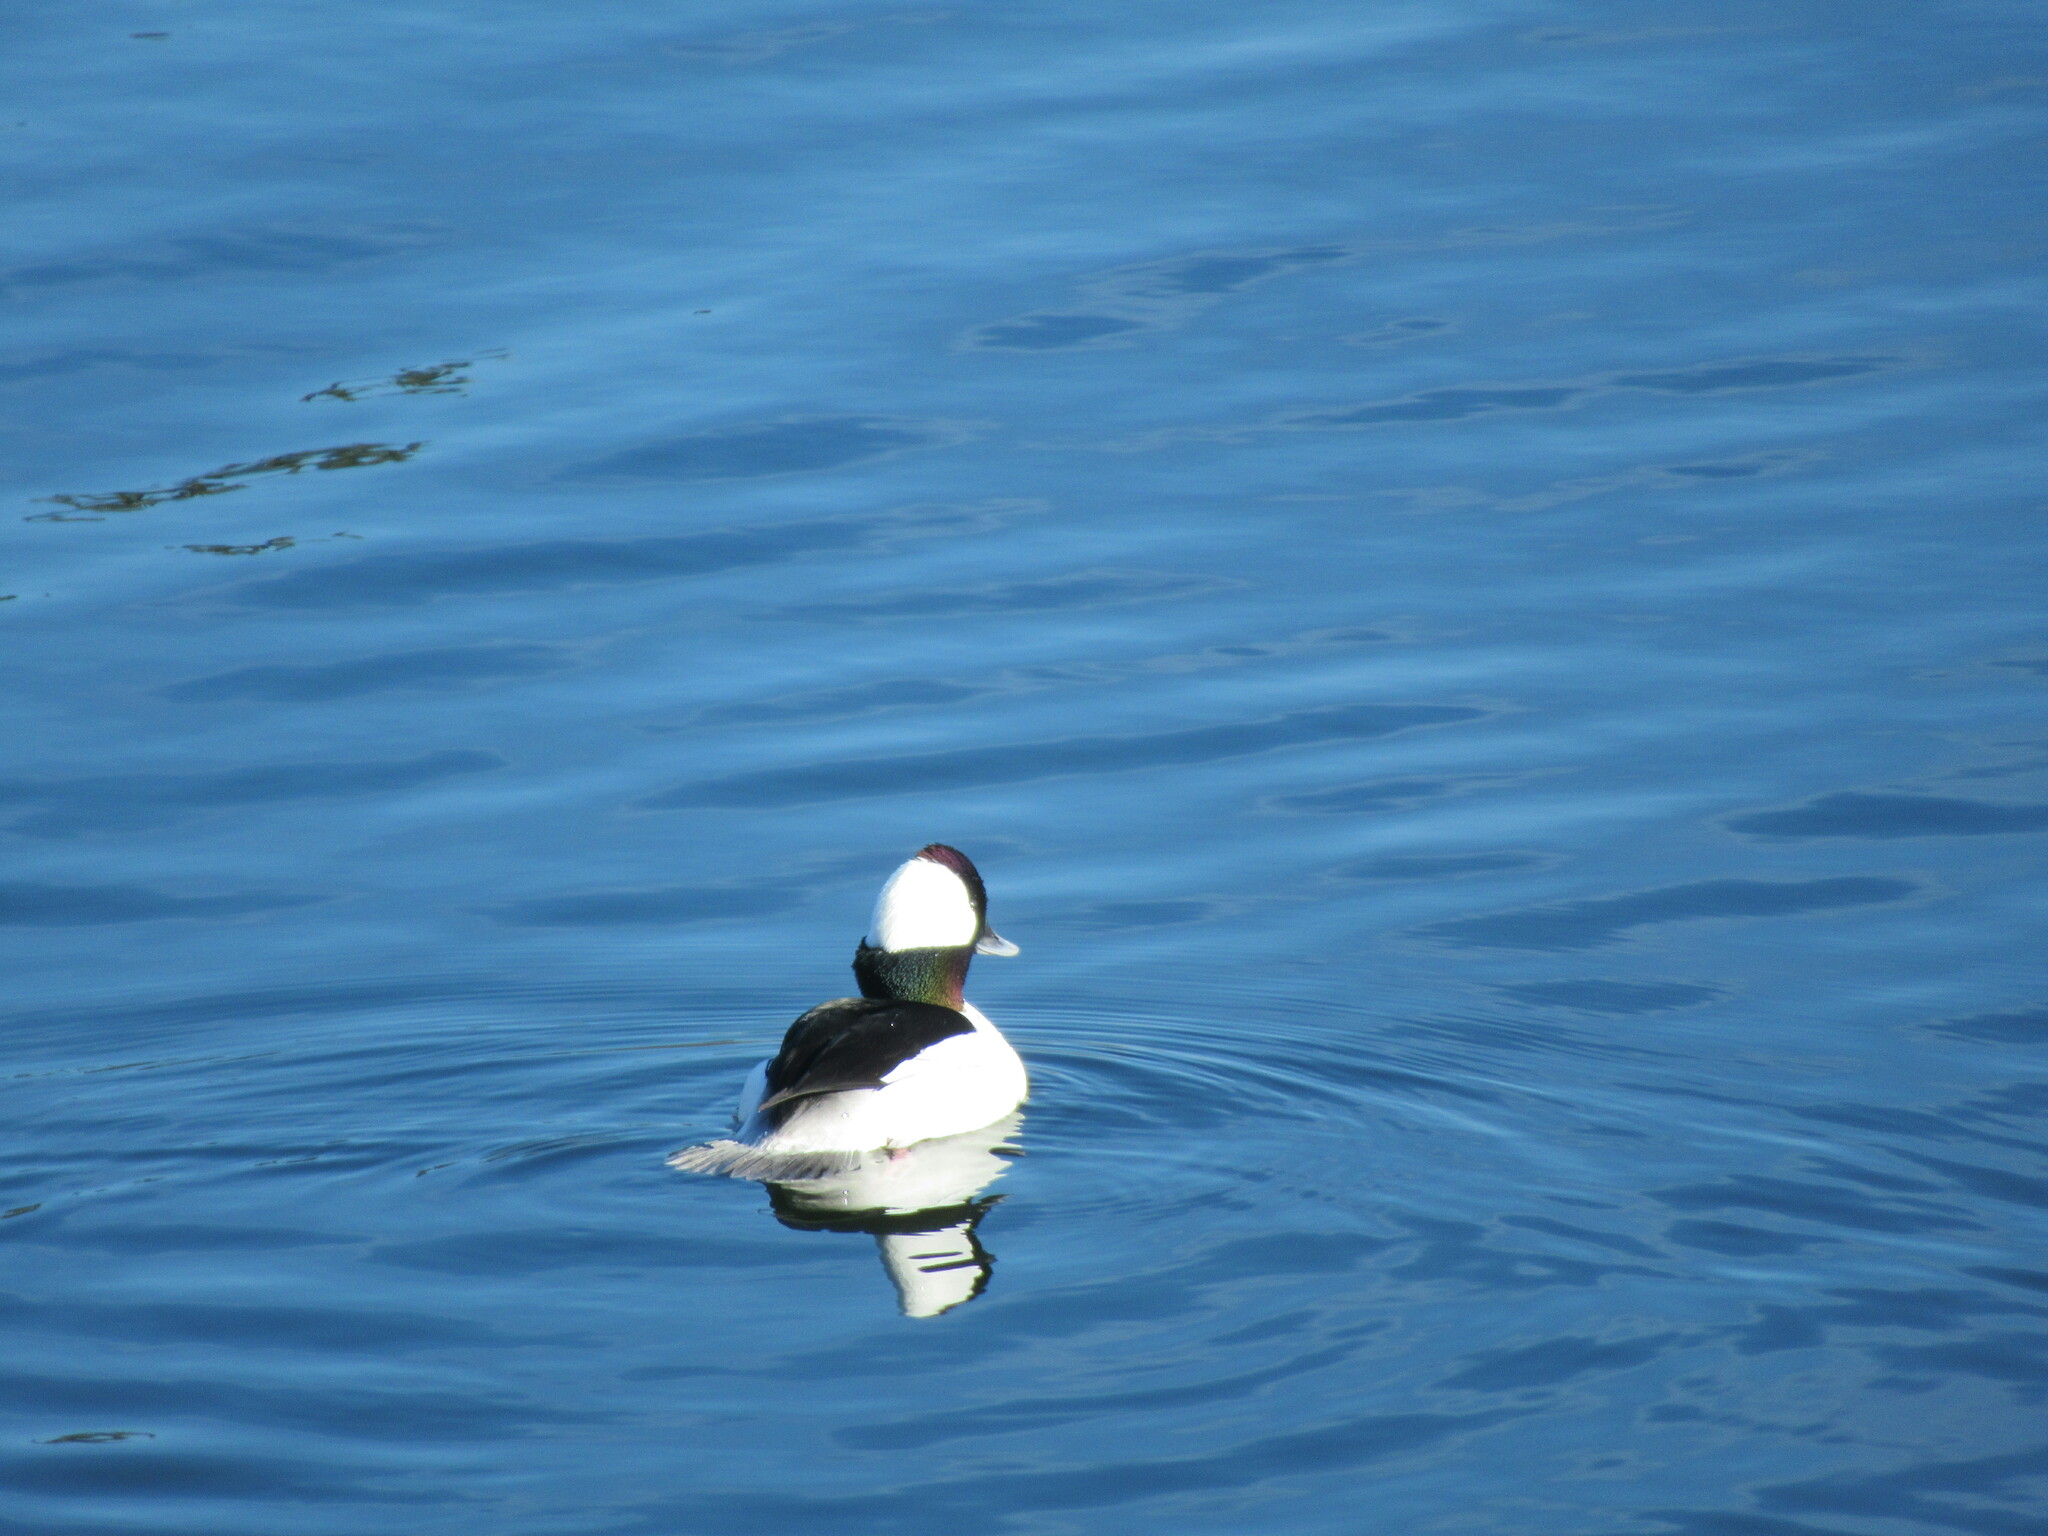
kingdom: Animalia
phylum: Chordata
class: Aves
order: Anseriformes
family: Anatidae
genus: Bucephala
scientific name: Bucephala albeola
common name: Bufflehead
